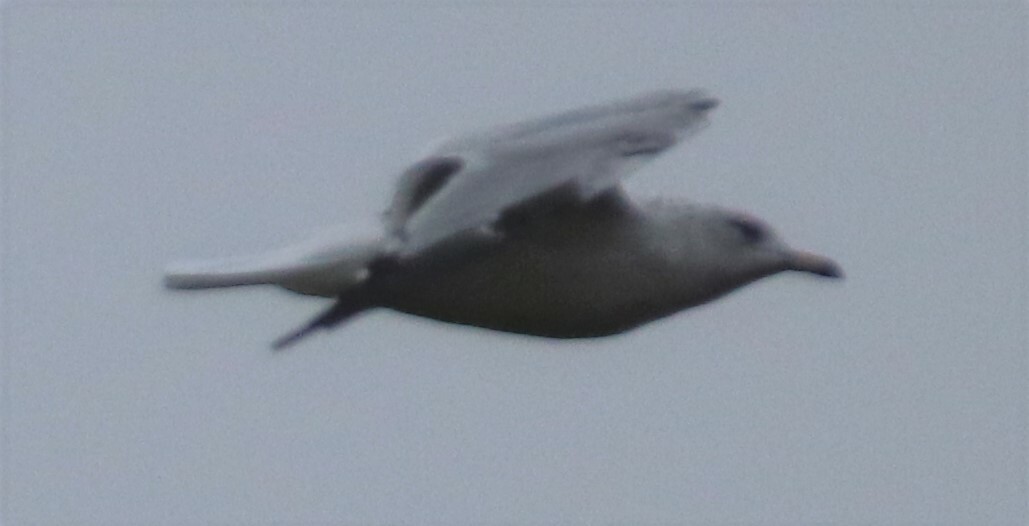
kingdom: Animalia
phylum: Chordata
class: Aves
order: Charadriiformes
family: Laridae
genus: Larus
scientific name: Larus delawarensis
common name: Ring-billed gull
